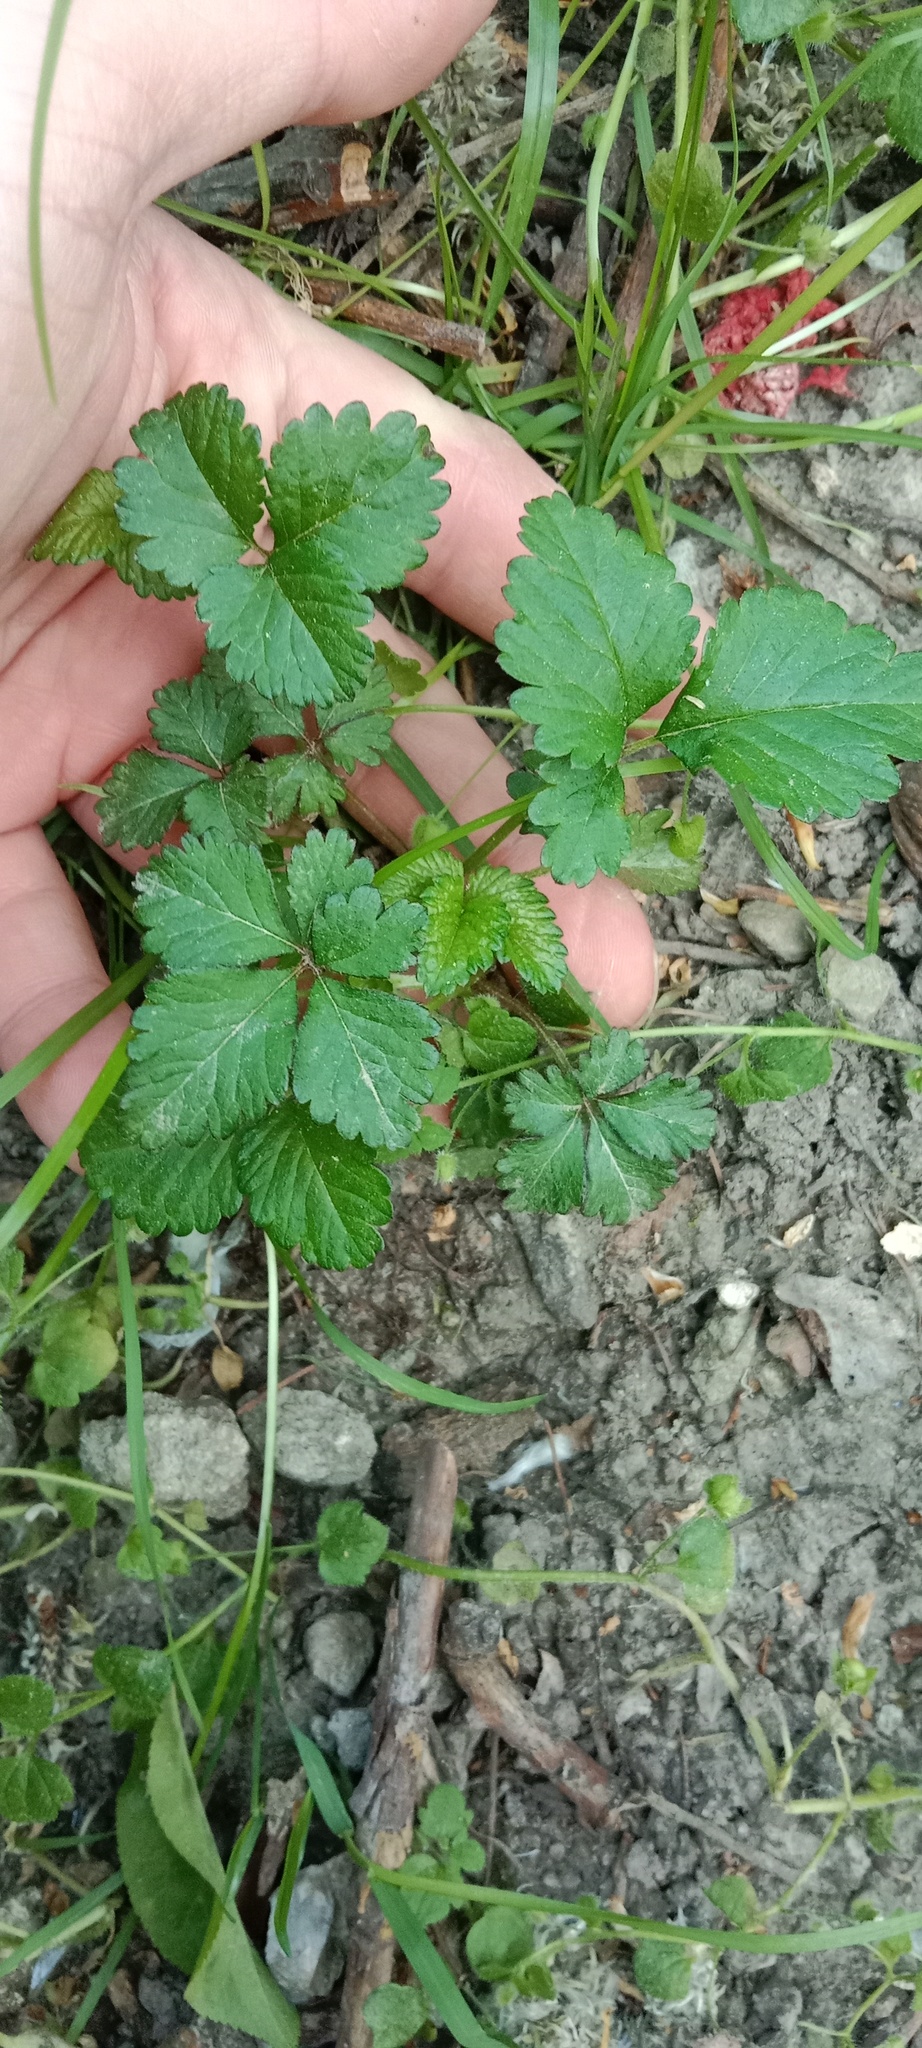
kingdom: Plantae
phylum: Tracheophyta
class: Magnoliopsida
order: Rosales
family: Rosaceae
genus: Potentilla
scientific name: Potentilla indica
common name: Yellow-flowered strawberry
